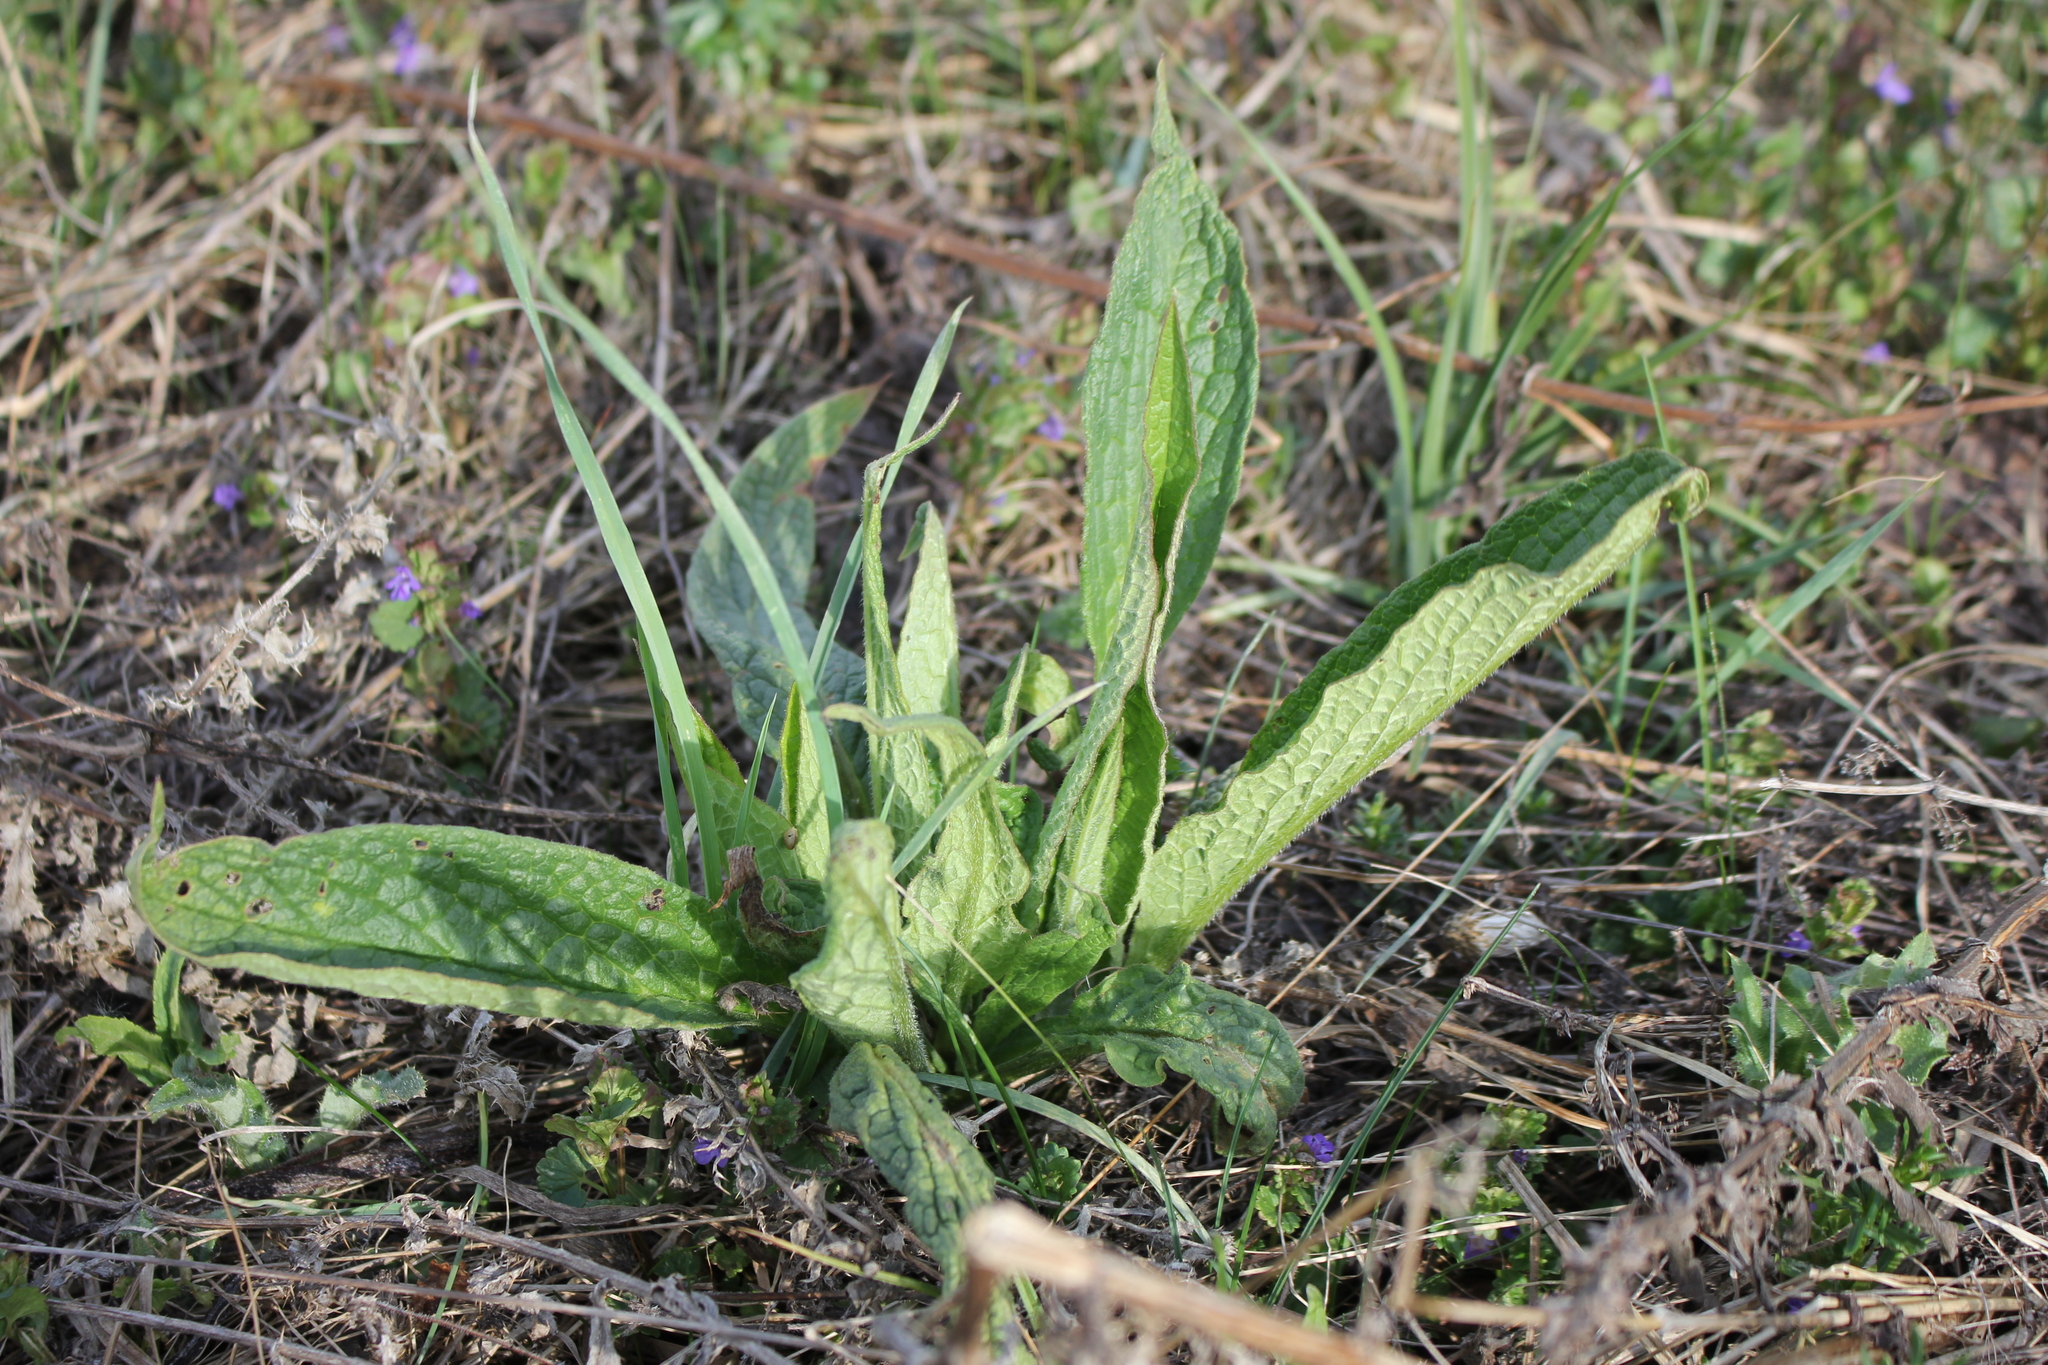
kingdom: Plantae
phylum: Tracheophyta
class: Magnoliopsida
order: Boraginales
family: Boraginaceae
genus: Symphytum
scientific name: Symphytum officinale
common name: Common comfrey
